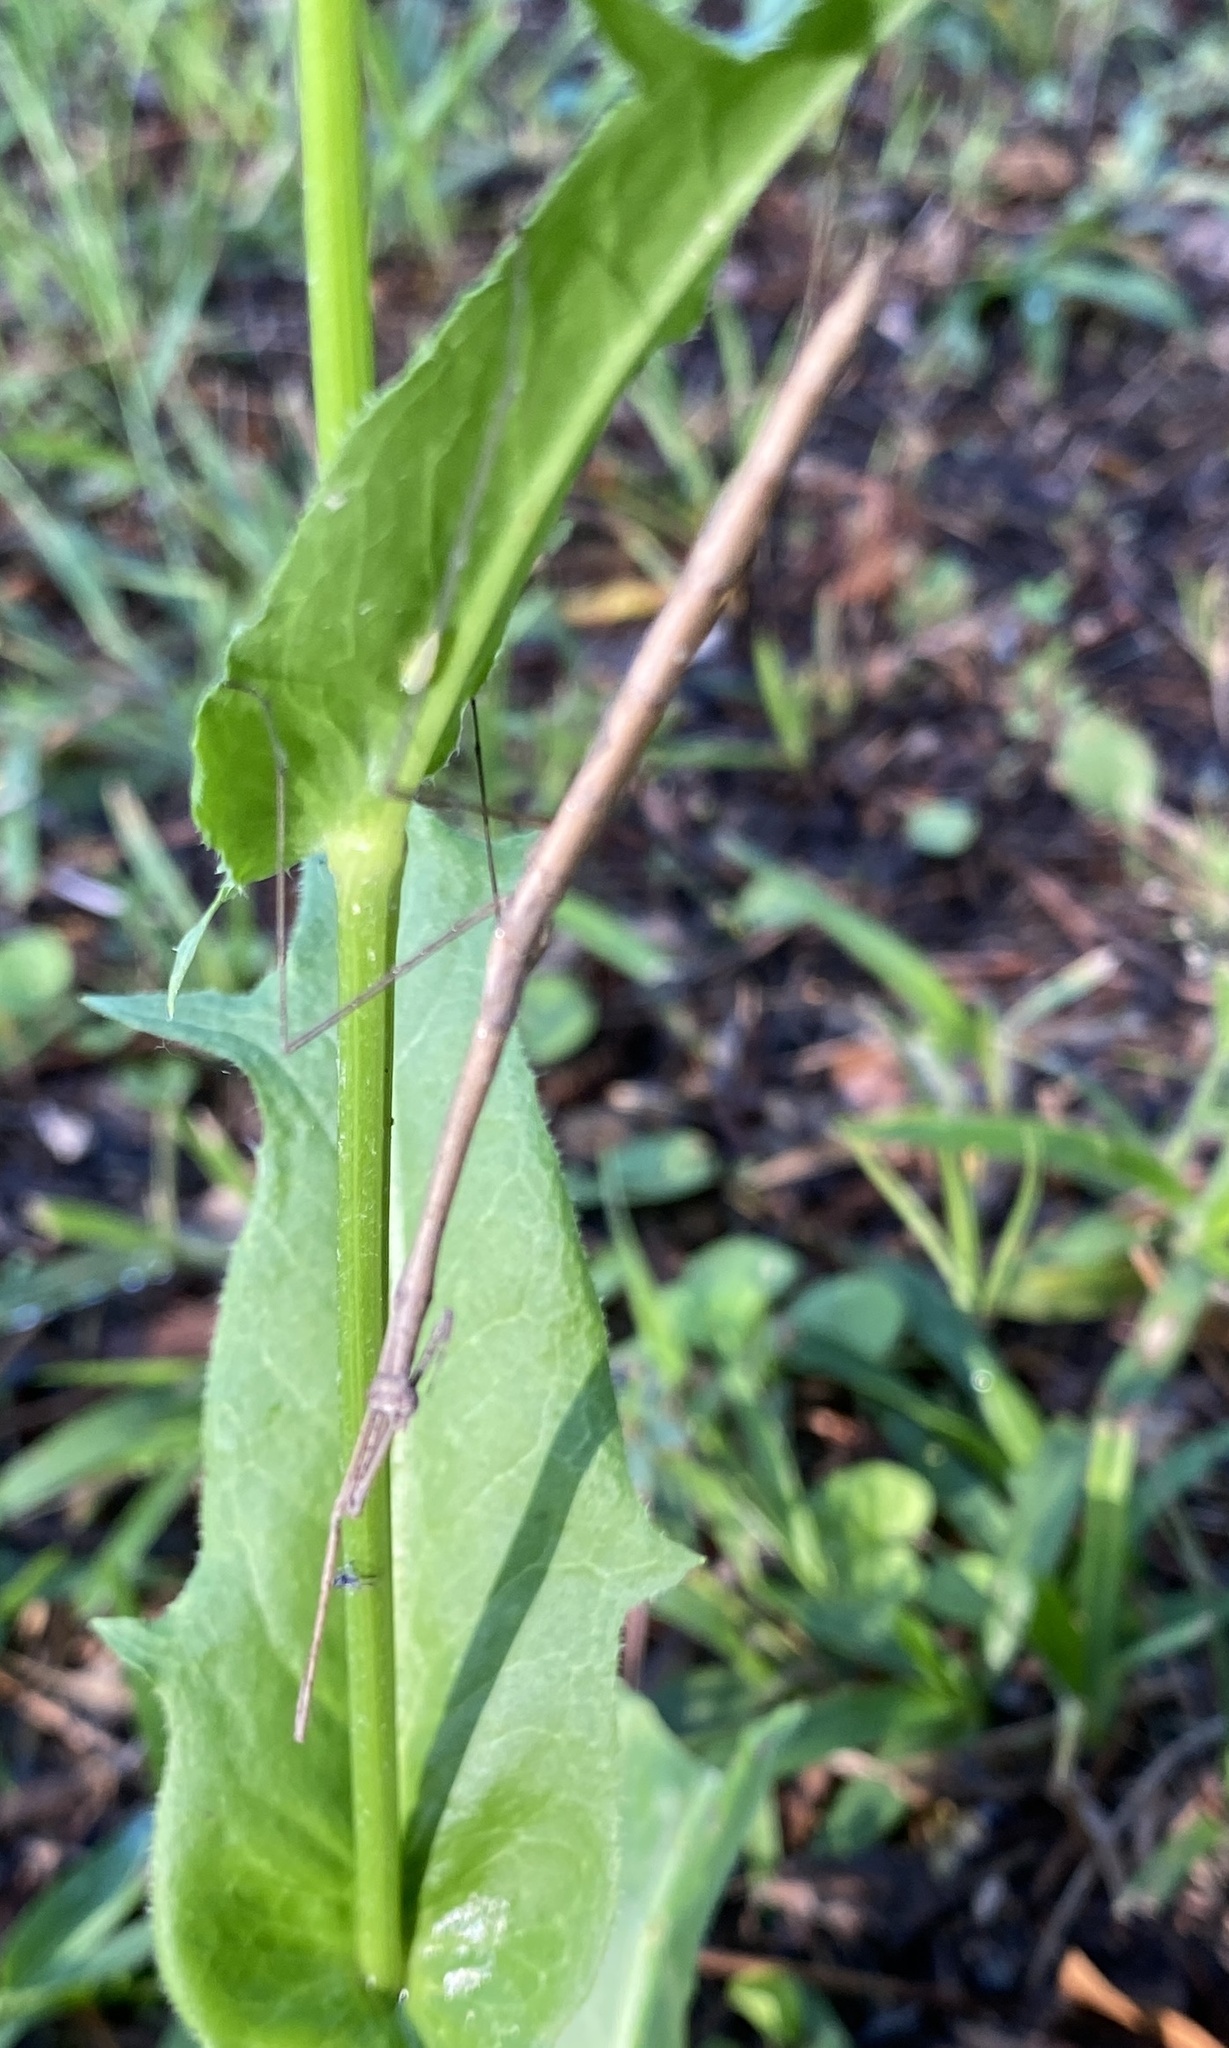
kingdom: Animalia
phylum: Arthropoda
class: Insecta
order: Mantodea
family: Thespidae
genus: Thesprotia
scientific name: Thesprotia graminis
